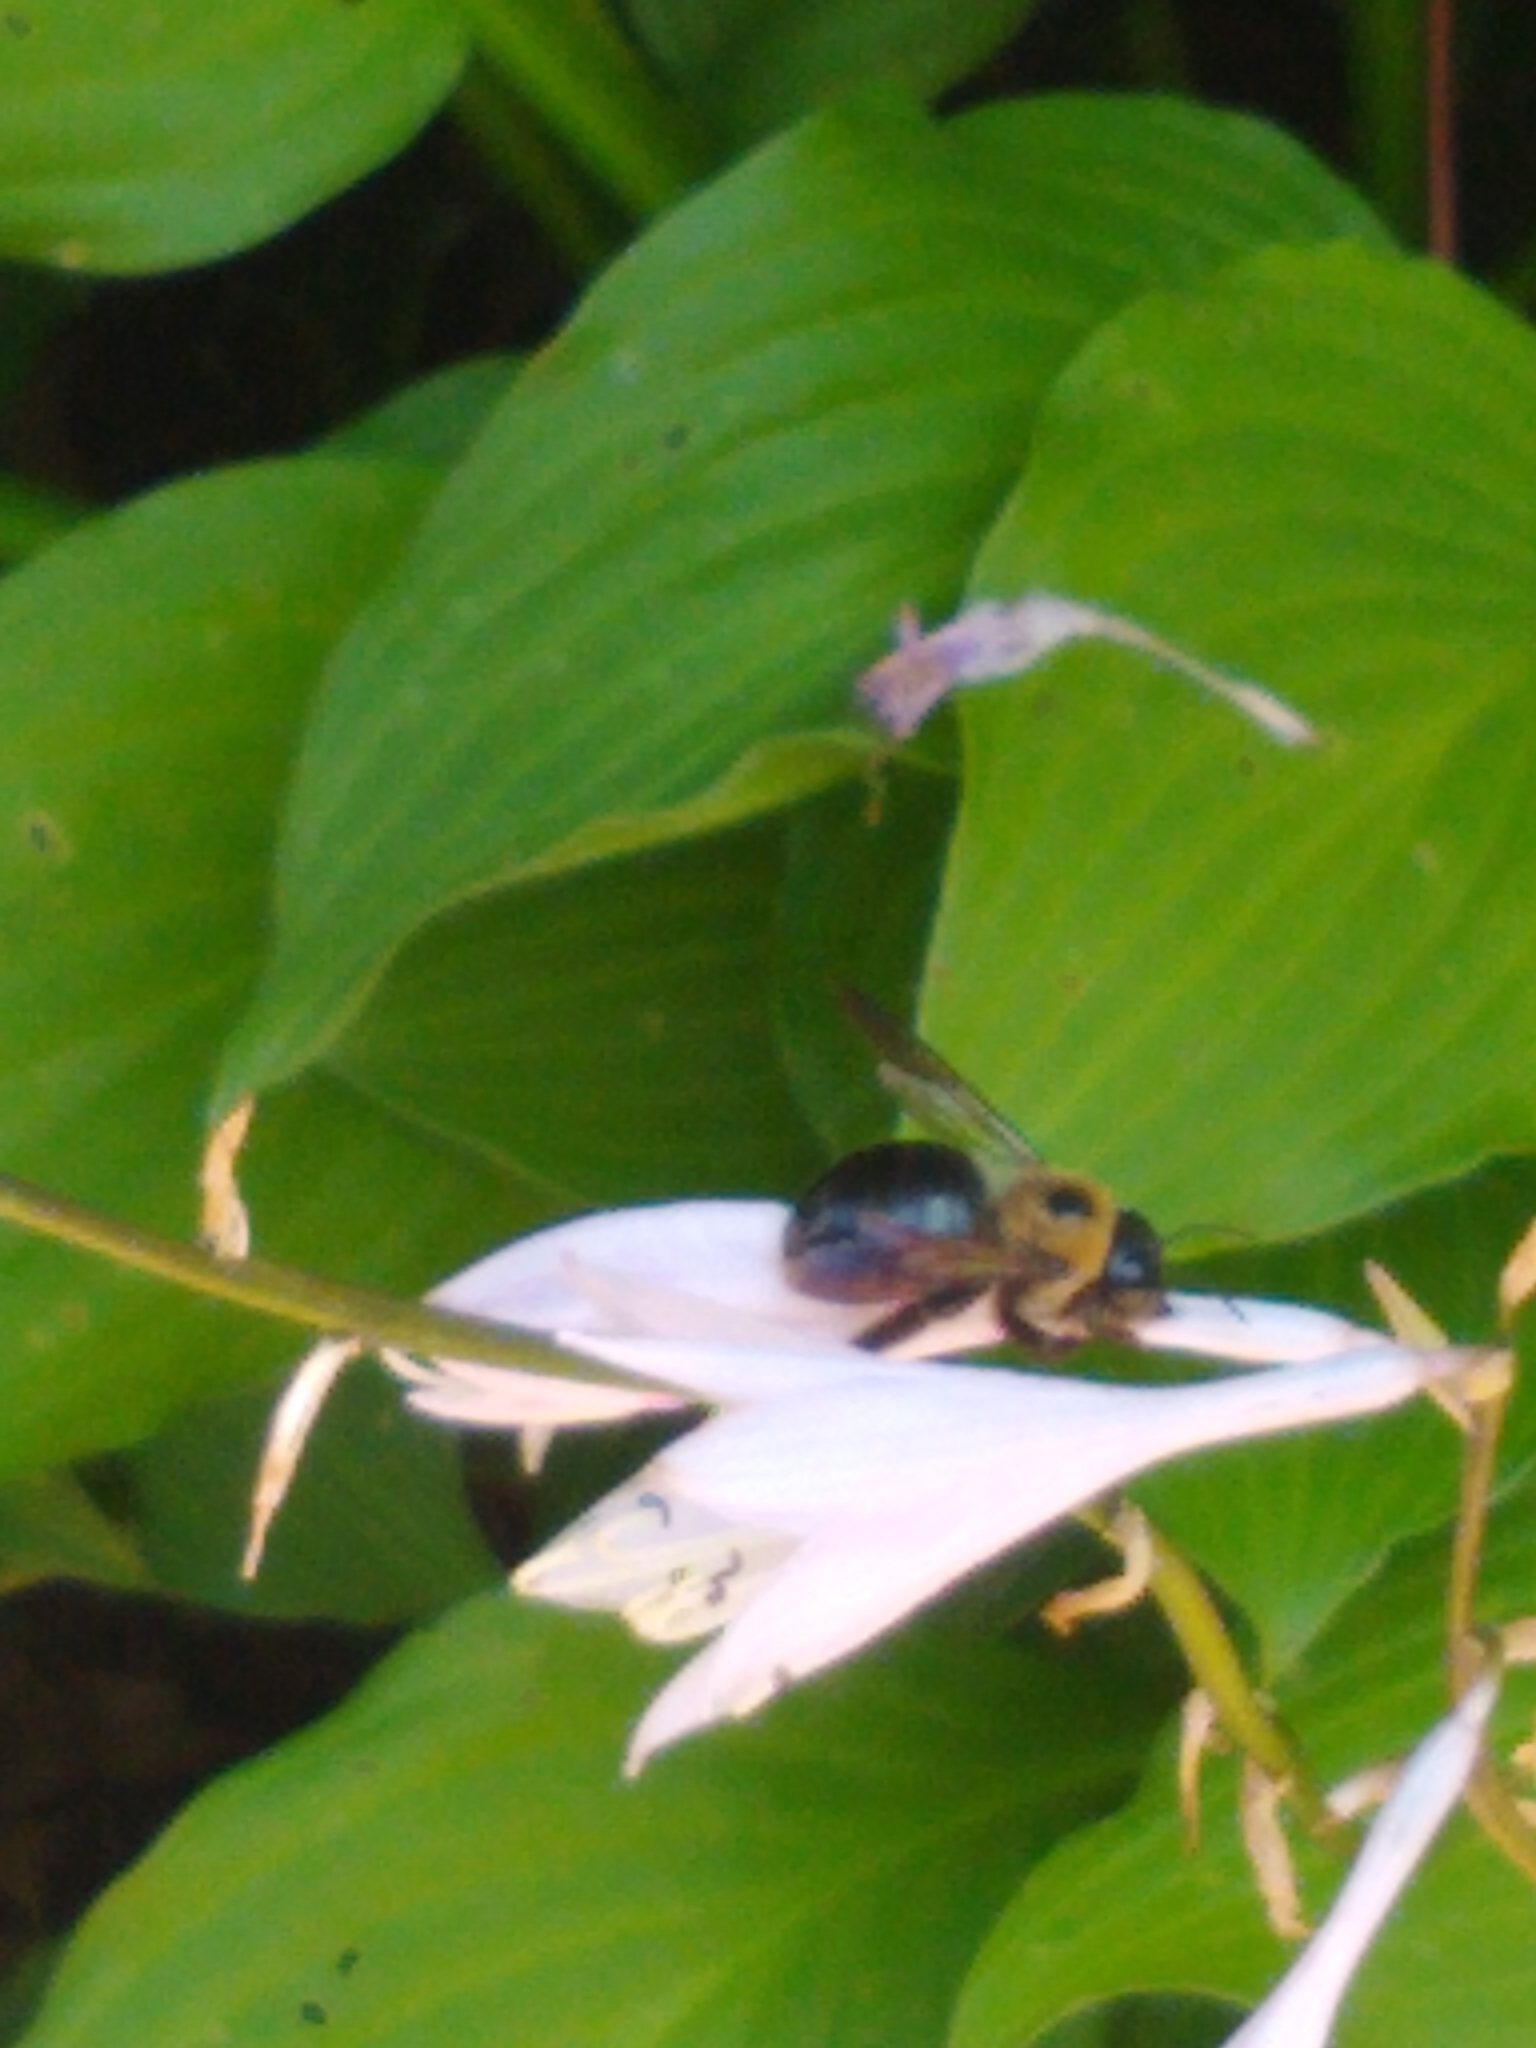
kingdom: Animalia
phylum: Arthropoda
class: Insecta
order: Hymenoptera
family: Apidae
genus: Xylocopa
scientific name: Xylocopa virginica
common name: Carpenter bee
